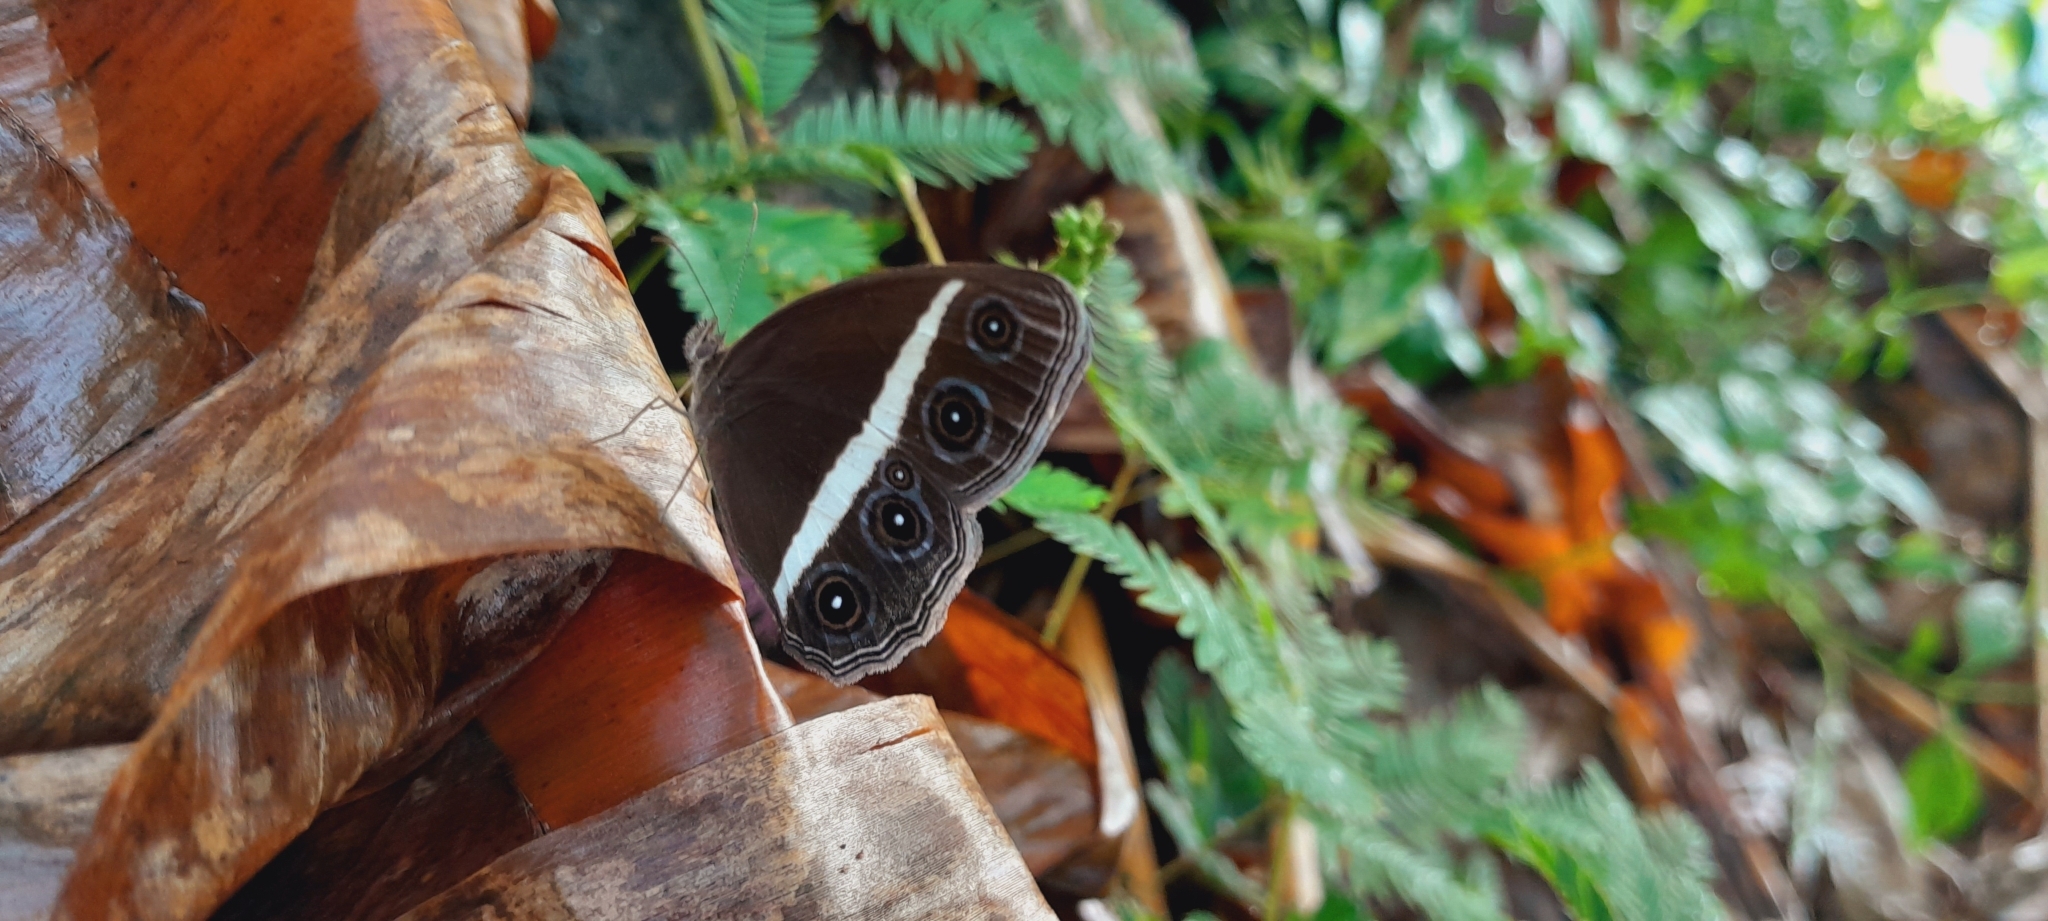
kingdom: Animalia
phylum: Arthropoda
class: Insecta
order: Lepidoptera
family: Nymphalidae
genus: Orsotriaena
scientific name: Orsotriaena medus
